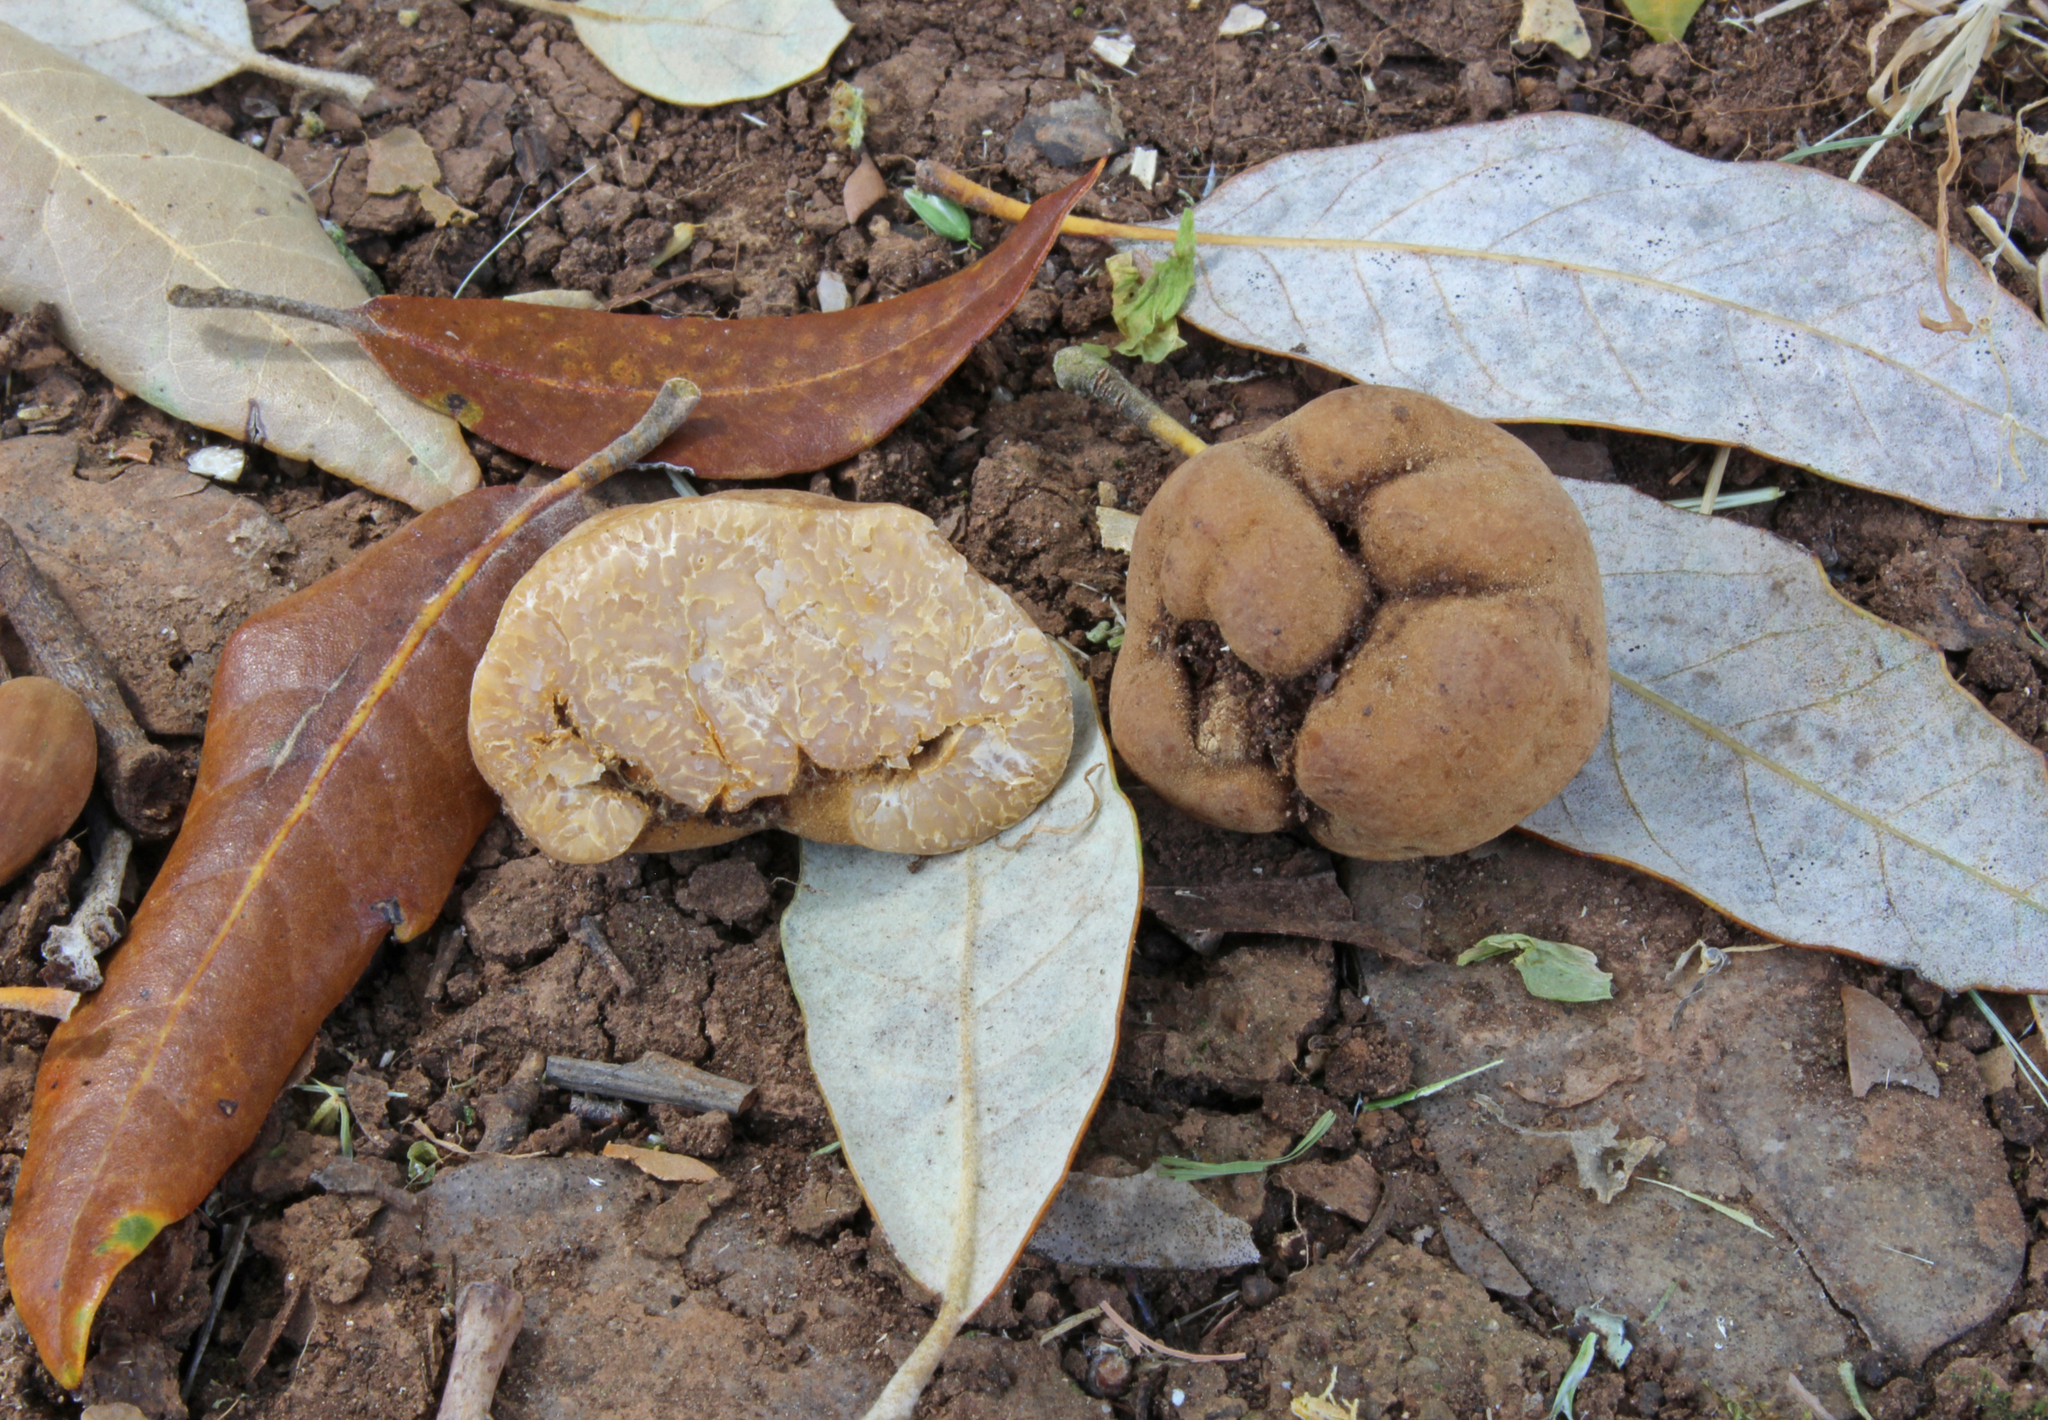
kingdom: Fungi
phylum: Ascomycota
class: Pezizomycetes
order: Pezizales
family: Tuberaceae
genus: Tuber
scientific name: Tuber excavatum
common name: Hollowed truffle
